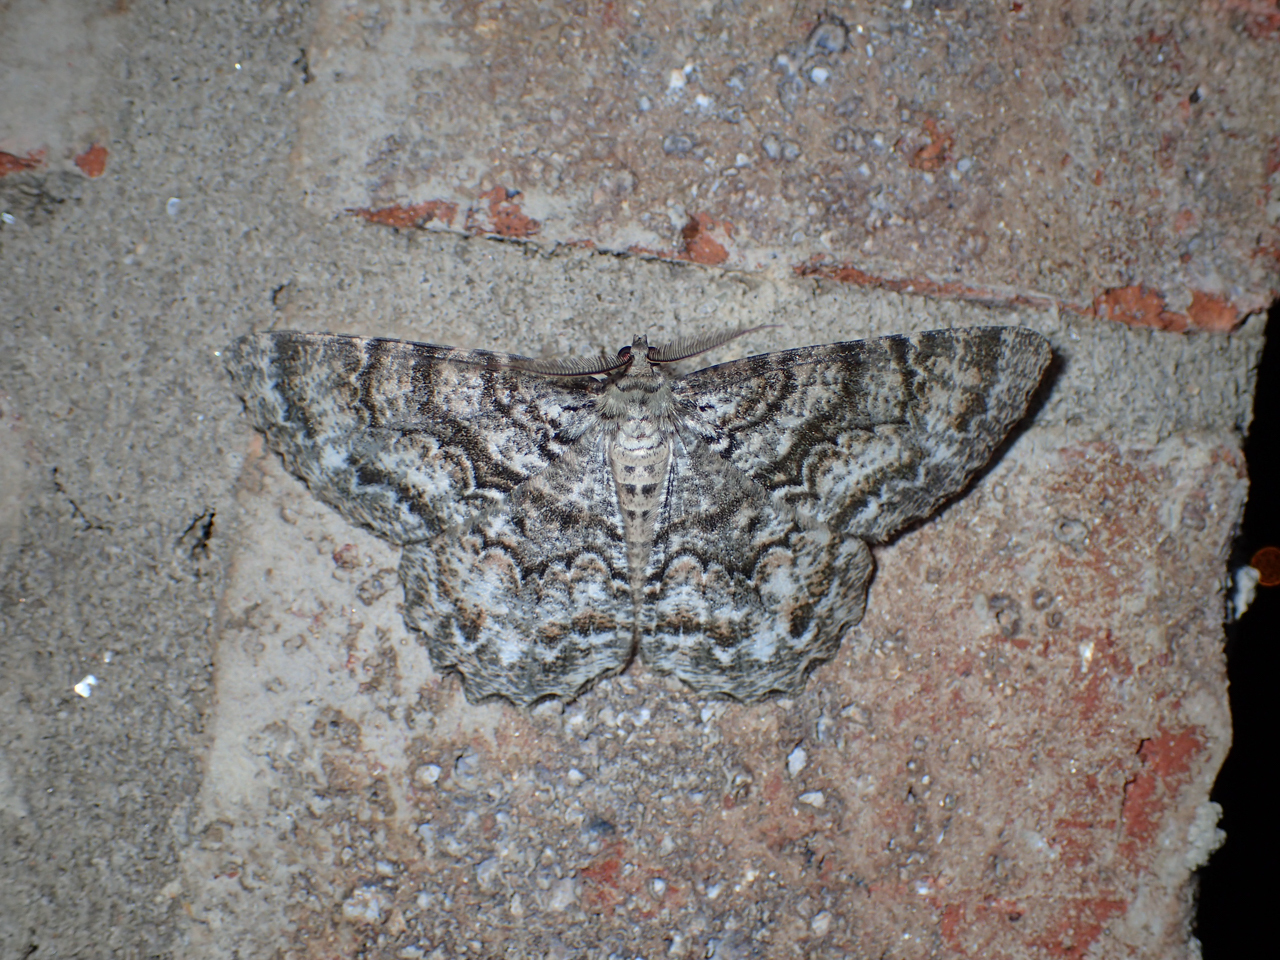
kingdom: Animalia
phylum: Arthropoda
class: Insecta
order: Lepidoptera
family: Geometridae
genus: Epimecis
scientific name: Epimecis hortaria
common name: Tulip-tree beauty
